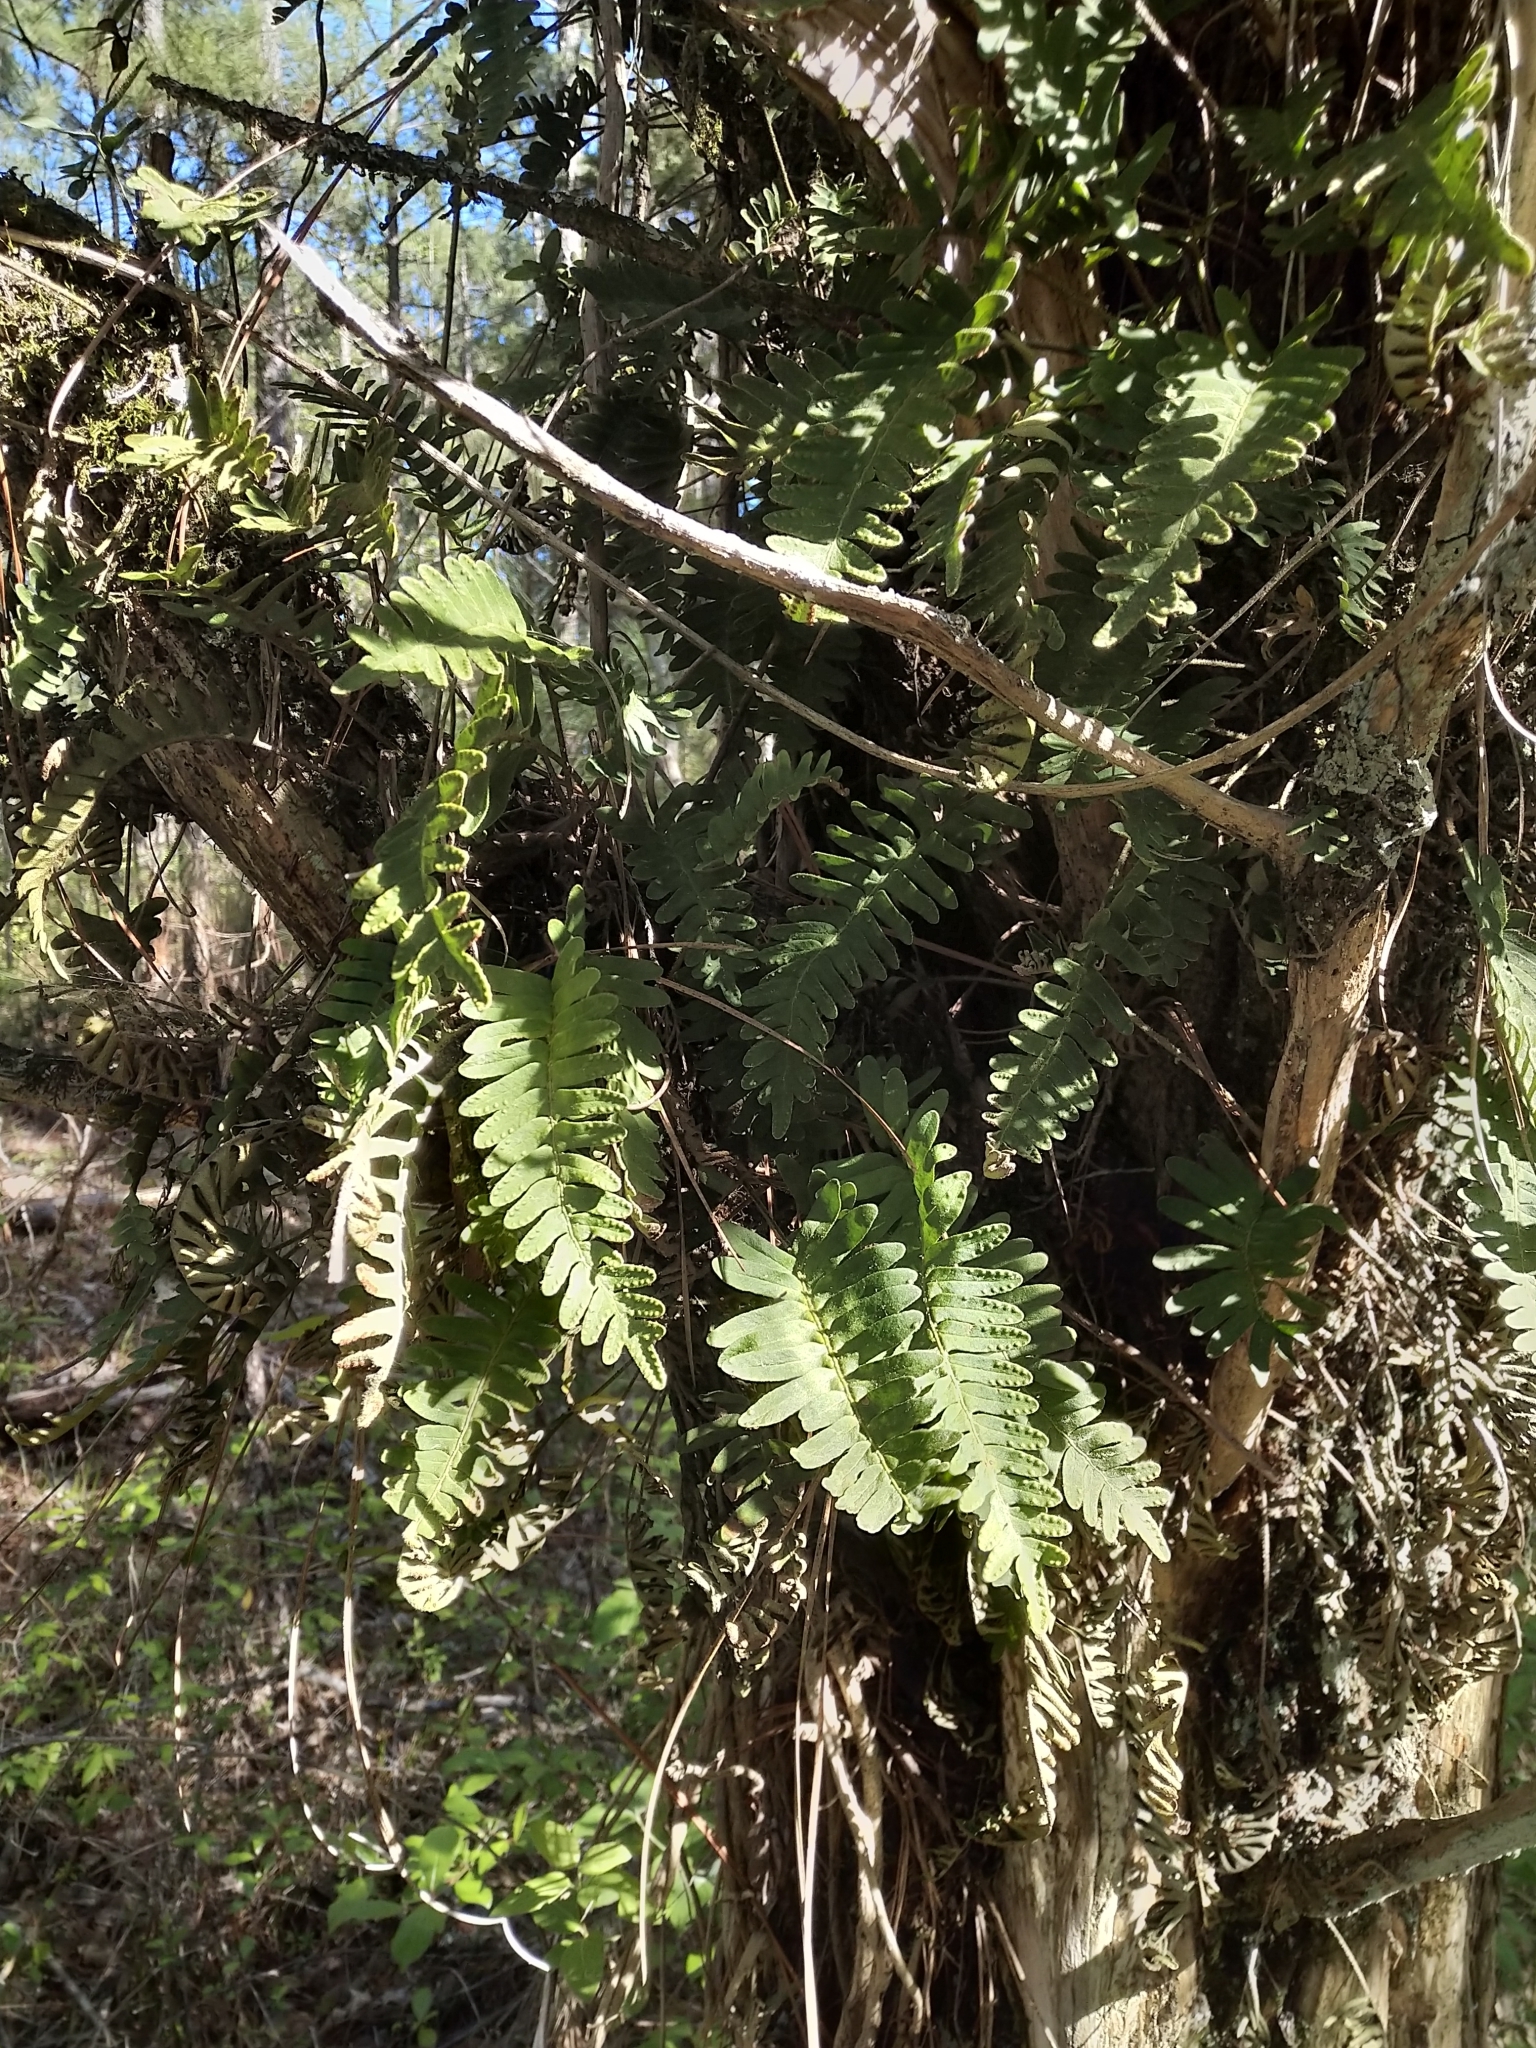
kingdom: Plantae
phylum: Tracheophyta
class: Polypodiopsida
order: Polypodiales
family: Polypodiaceae
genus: Pleopeltis
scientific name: Pleopeltis michauxiana
